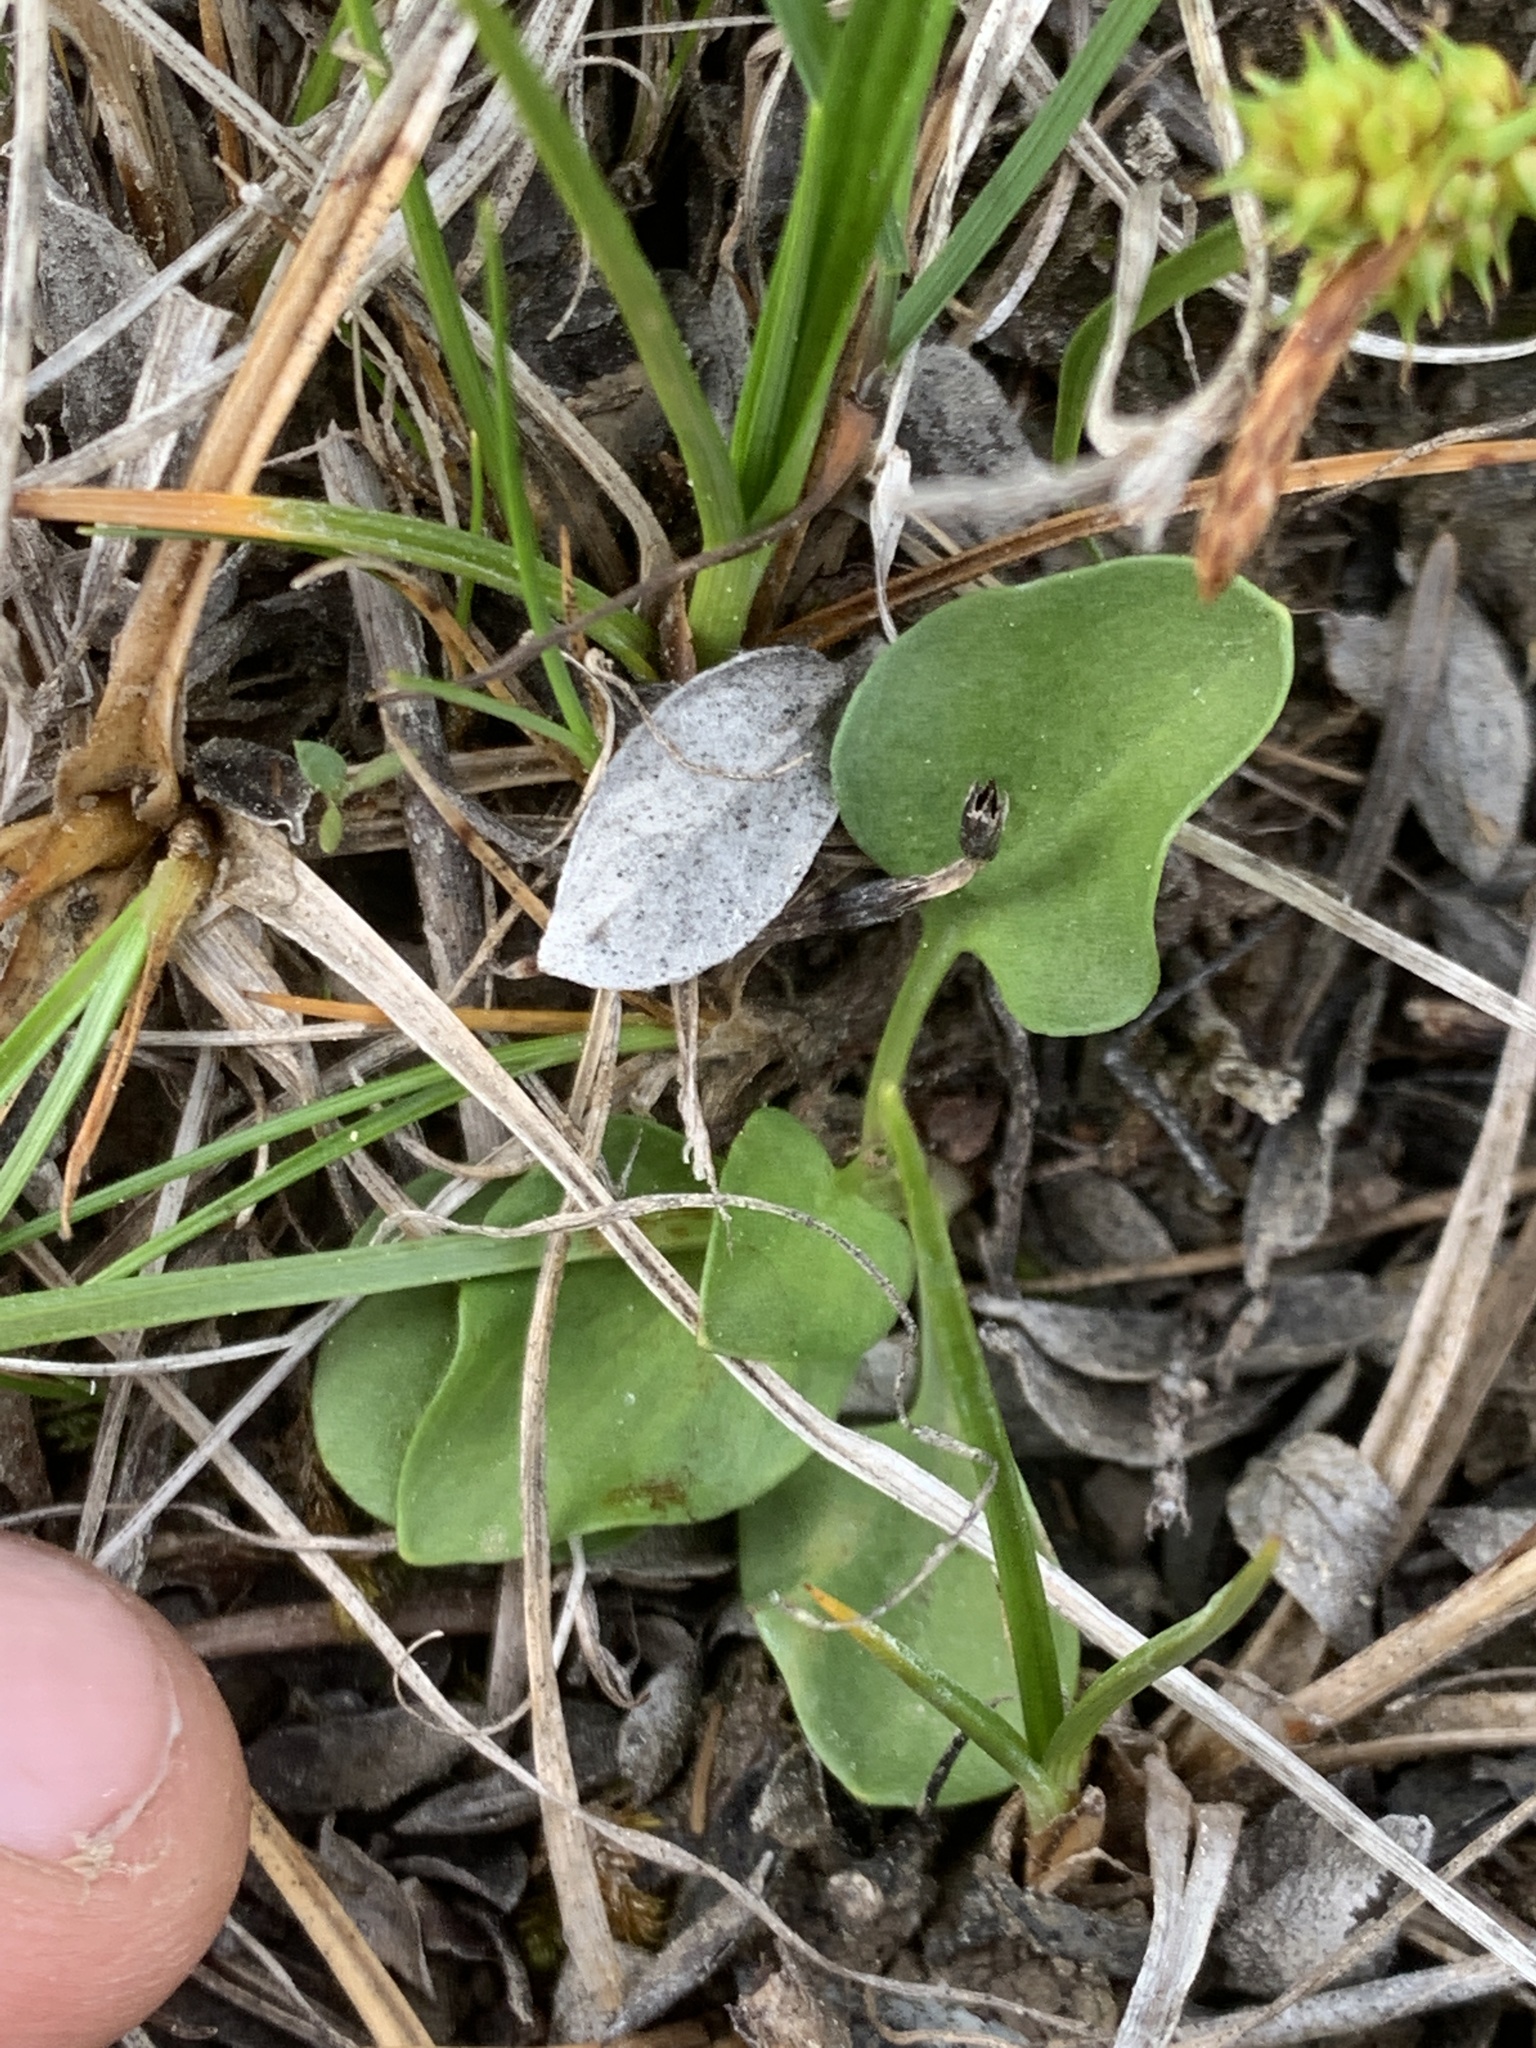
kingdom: Plantae
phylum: Tracheophyta
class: Magnoliopsida
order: Celastrales
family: Parnassiaceae
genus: Parnassia
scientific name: Parnassia palustris
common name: Grass-of-parnassus
